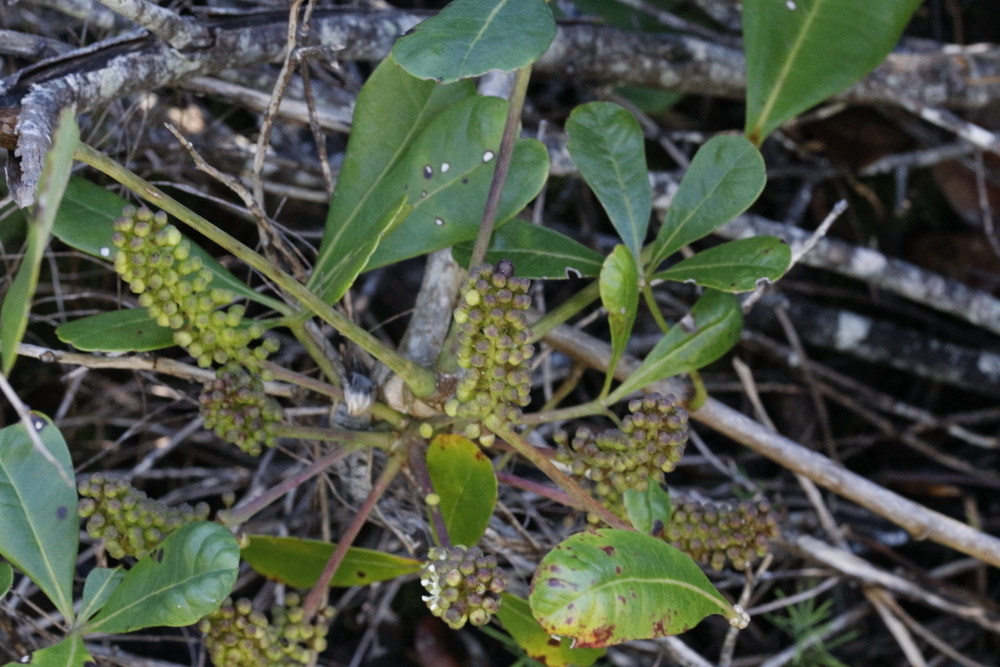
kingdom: Plantae
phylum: Tracheophyta
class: Magnoliopsida
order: Apiales
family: Araliaceae
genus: Cussonia
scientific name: Cussonia thyrsiflora
